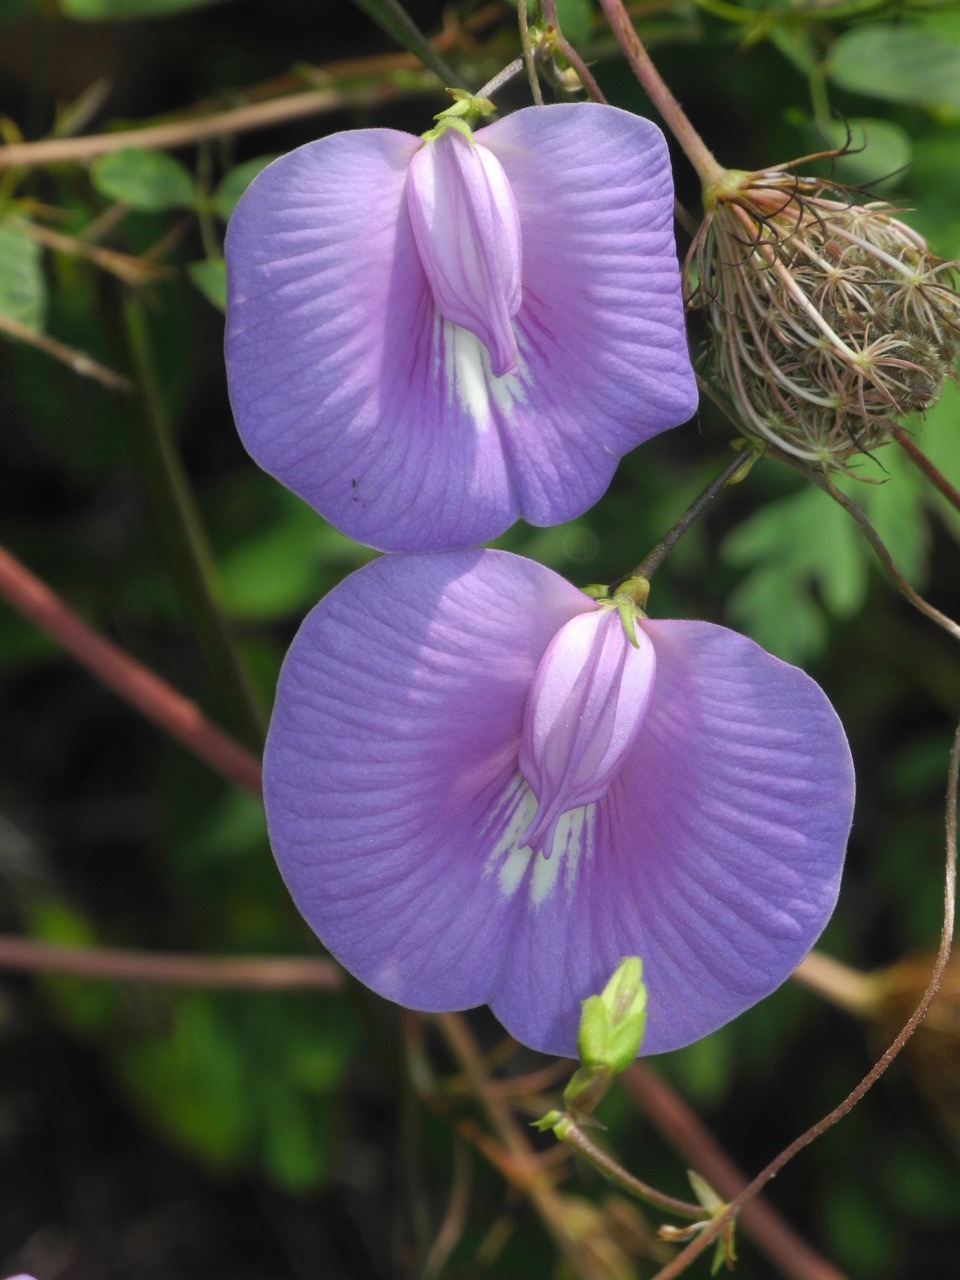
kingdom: Plantae
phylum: Tracheophyta
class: Magnoliopsida
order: Fabales
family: Fabaceae
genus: Centrosema
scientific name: Centrosema virginianum
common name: Butterfly-pea
